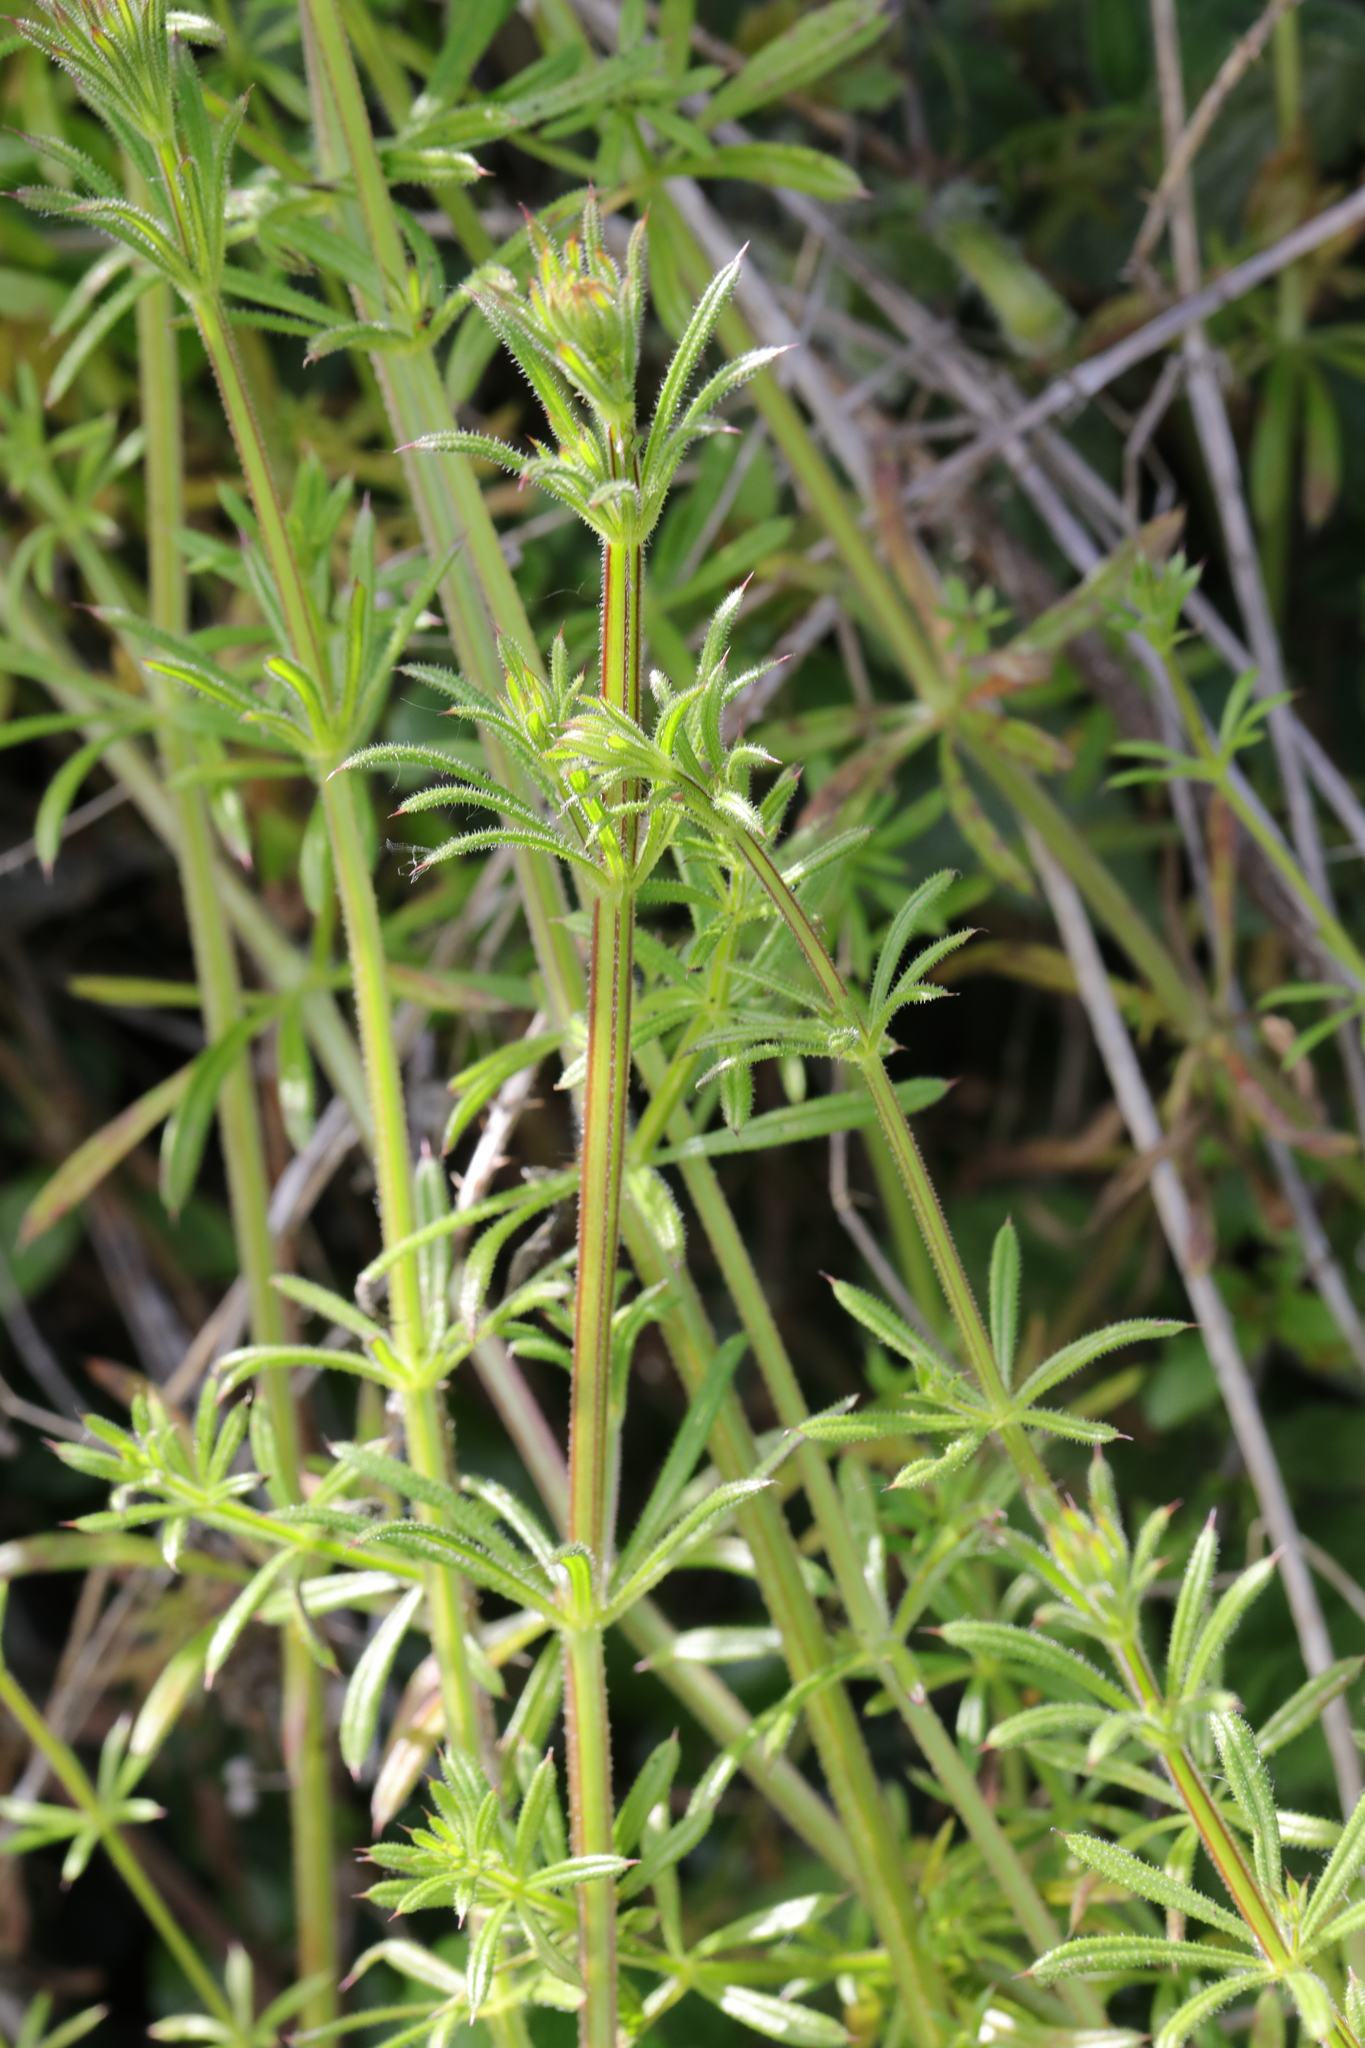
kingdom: Plantae
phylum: Tracheophyta
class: Magnoliopsida
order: Gentianales
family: Rubiaceae
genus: Galium
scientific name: Galium aparine
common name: Cleavers
